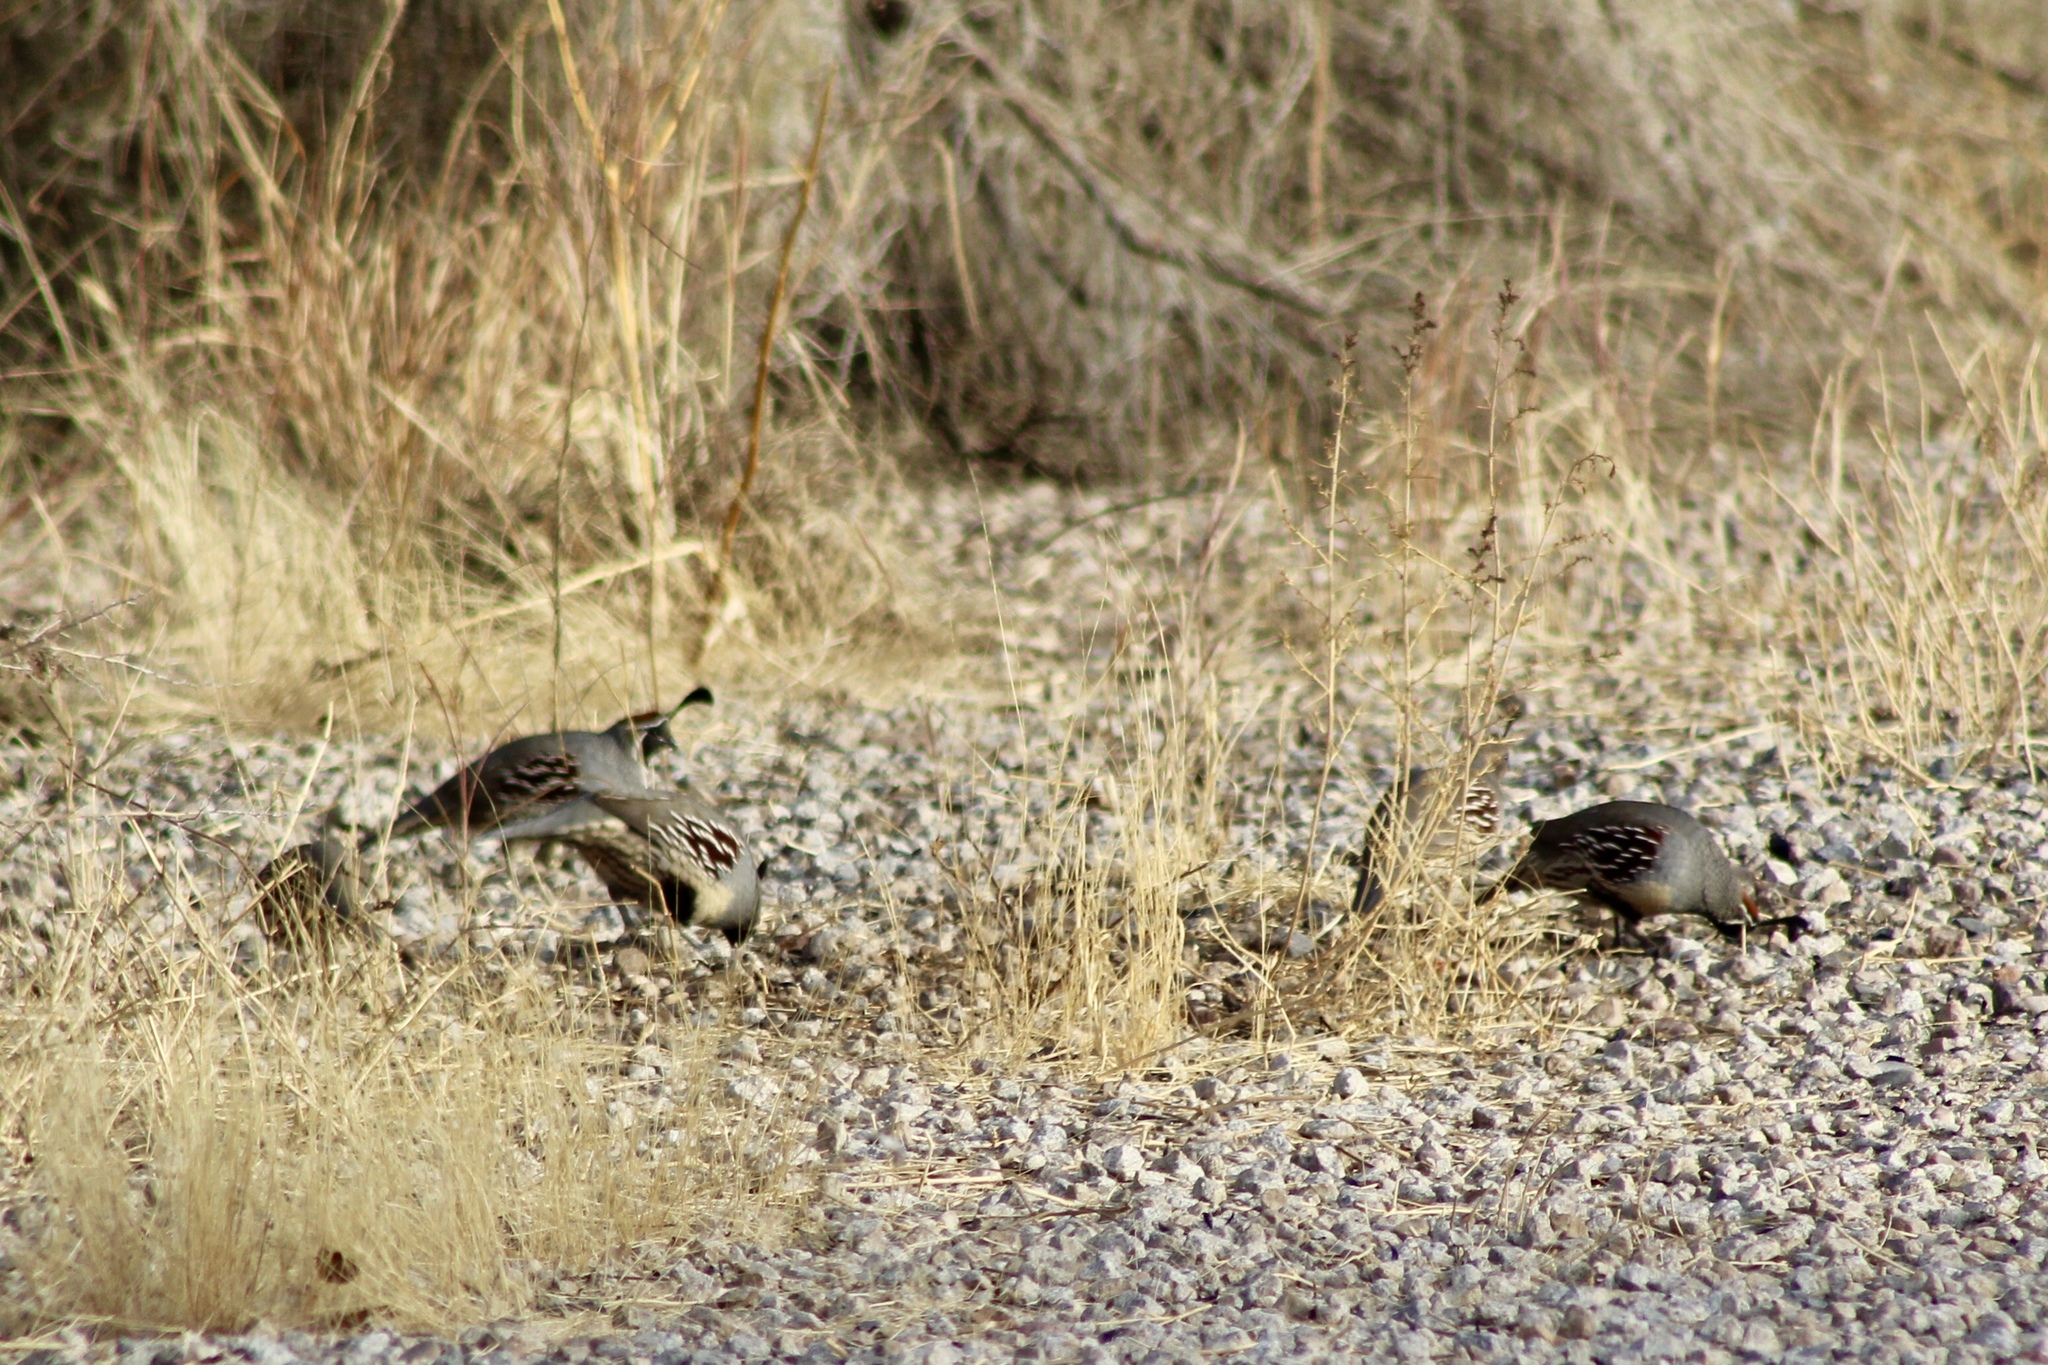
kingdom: Animalia
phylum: Chordata
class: Aves
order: Galliformes
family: Odontophoridae
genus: Callipepla
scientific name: Callipepla gambelii
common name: Gambel's quail
